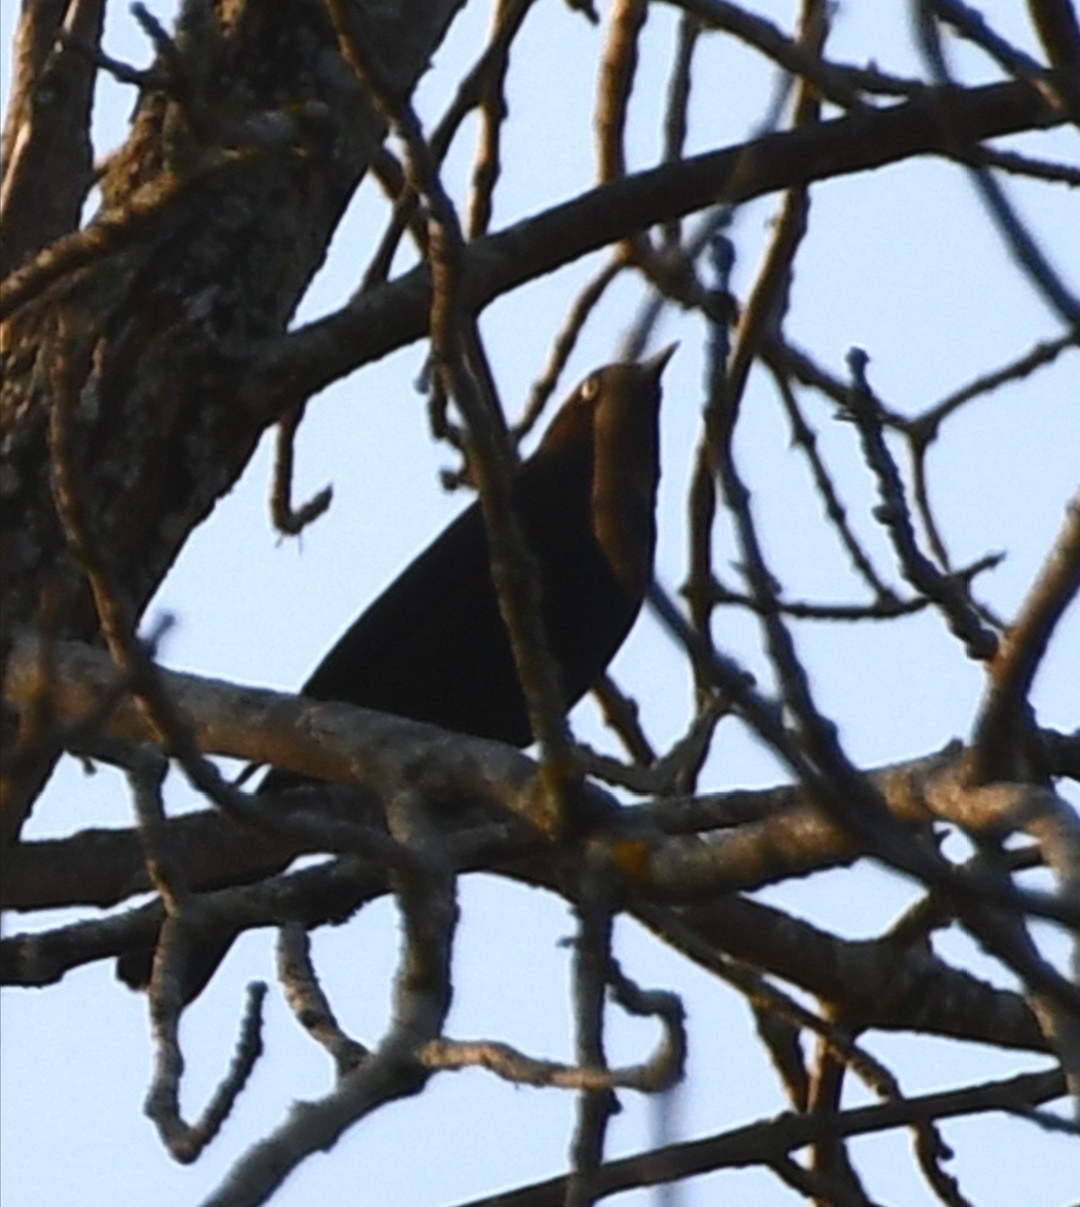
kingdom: Animalia
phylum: Chordata
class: Aves
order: Passeriformes
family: Icteridae
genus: Quiscalus
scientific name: Quiscalus quiscula
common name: Common grackle
